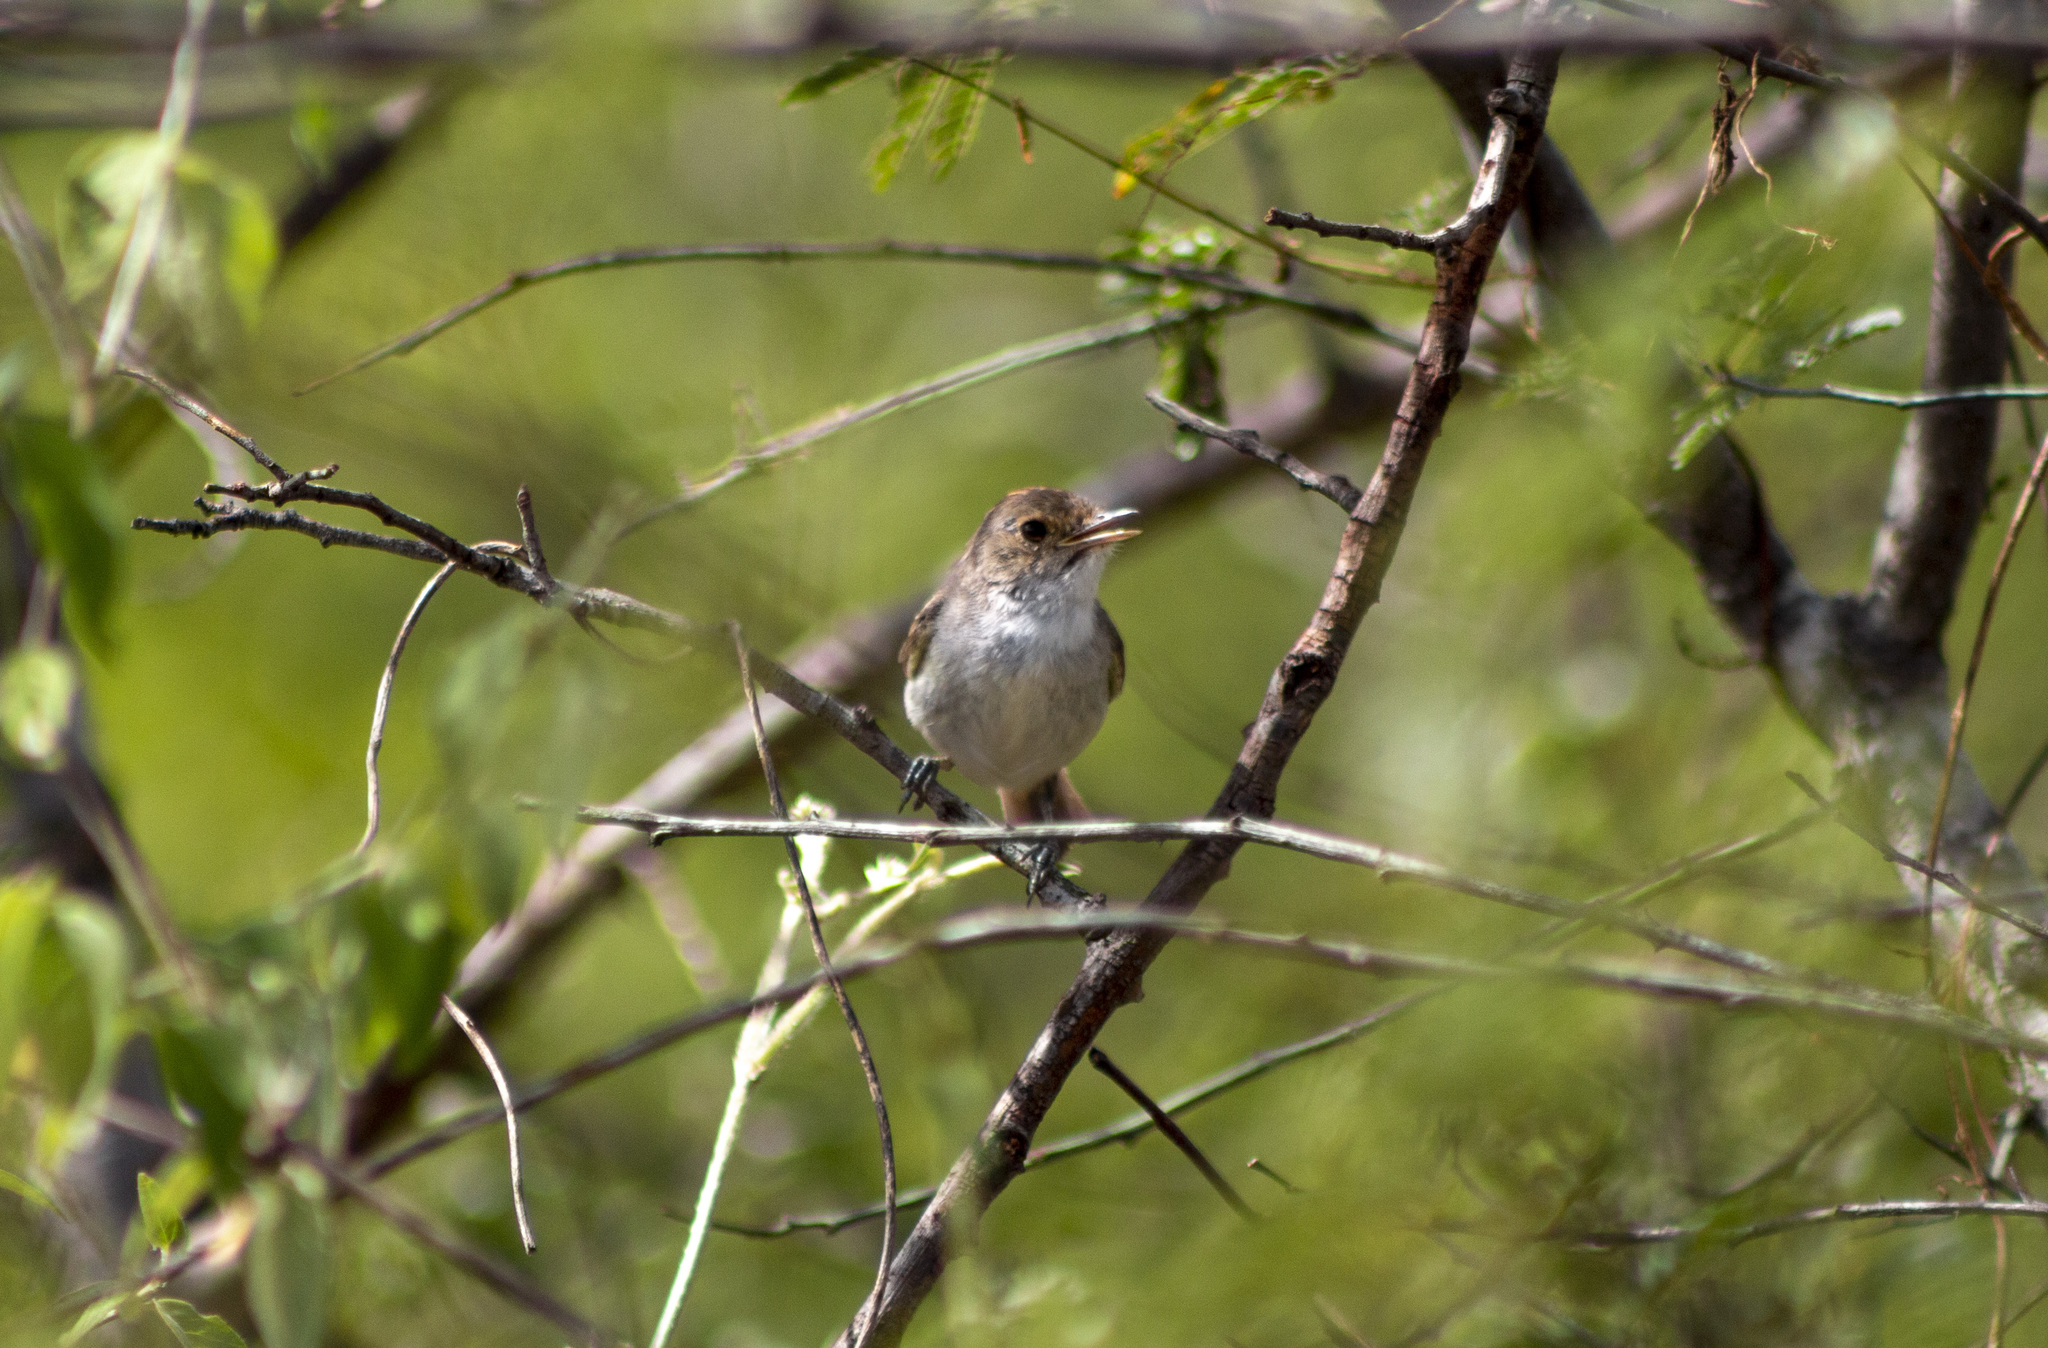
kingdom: Animalia
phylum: Chordata
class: Aves
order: Passeriformes
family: Tyrannidae
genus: Euscarthmus
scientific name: Euscarthmus meloryphus
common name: Tawny-crowned pygmy tyrant
